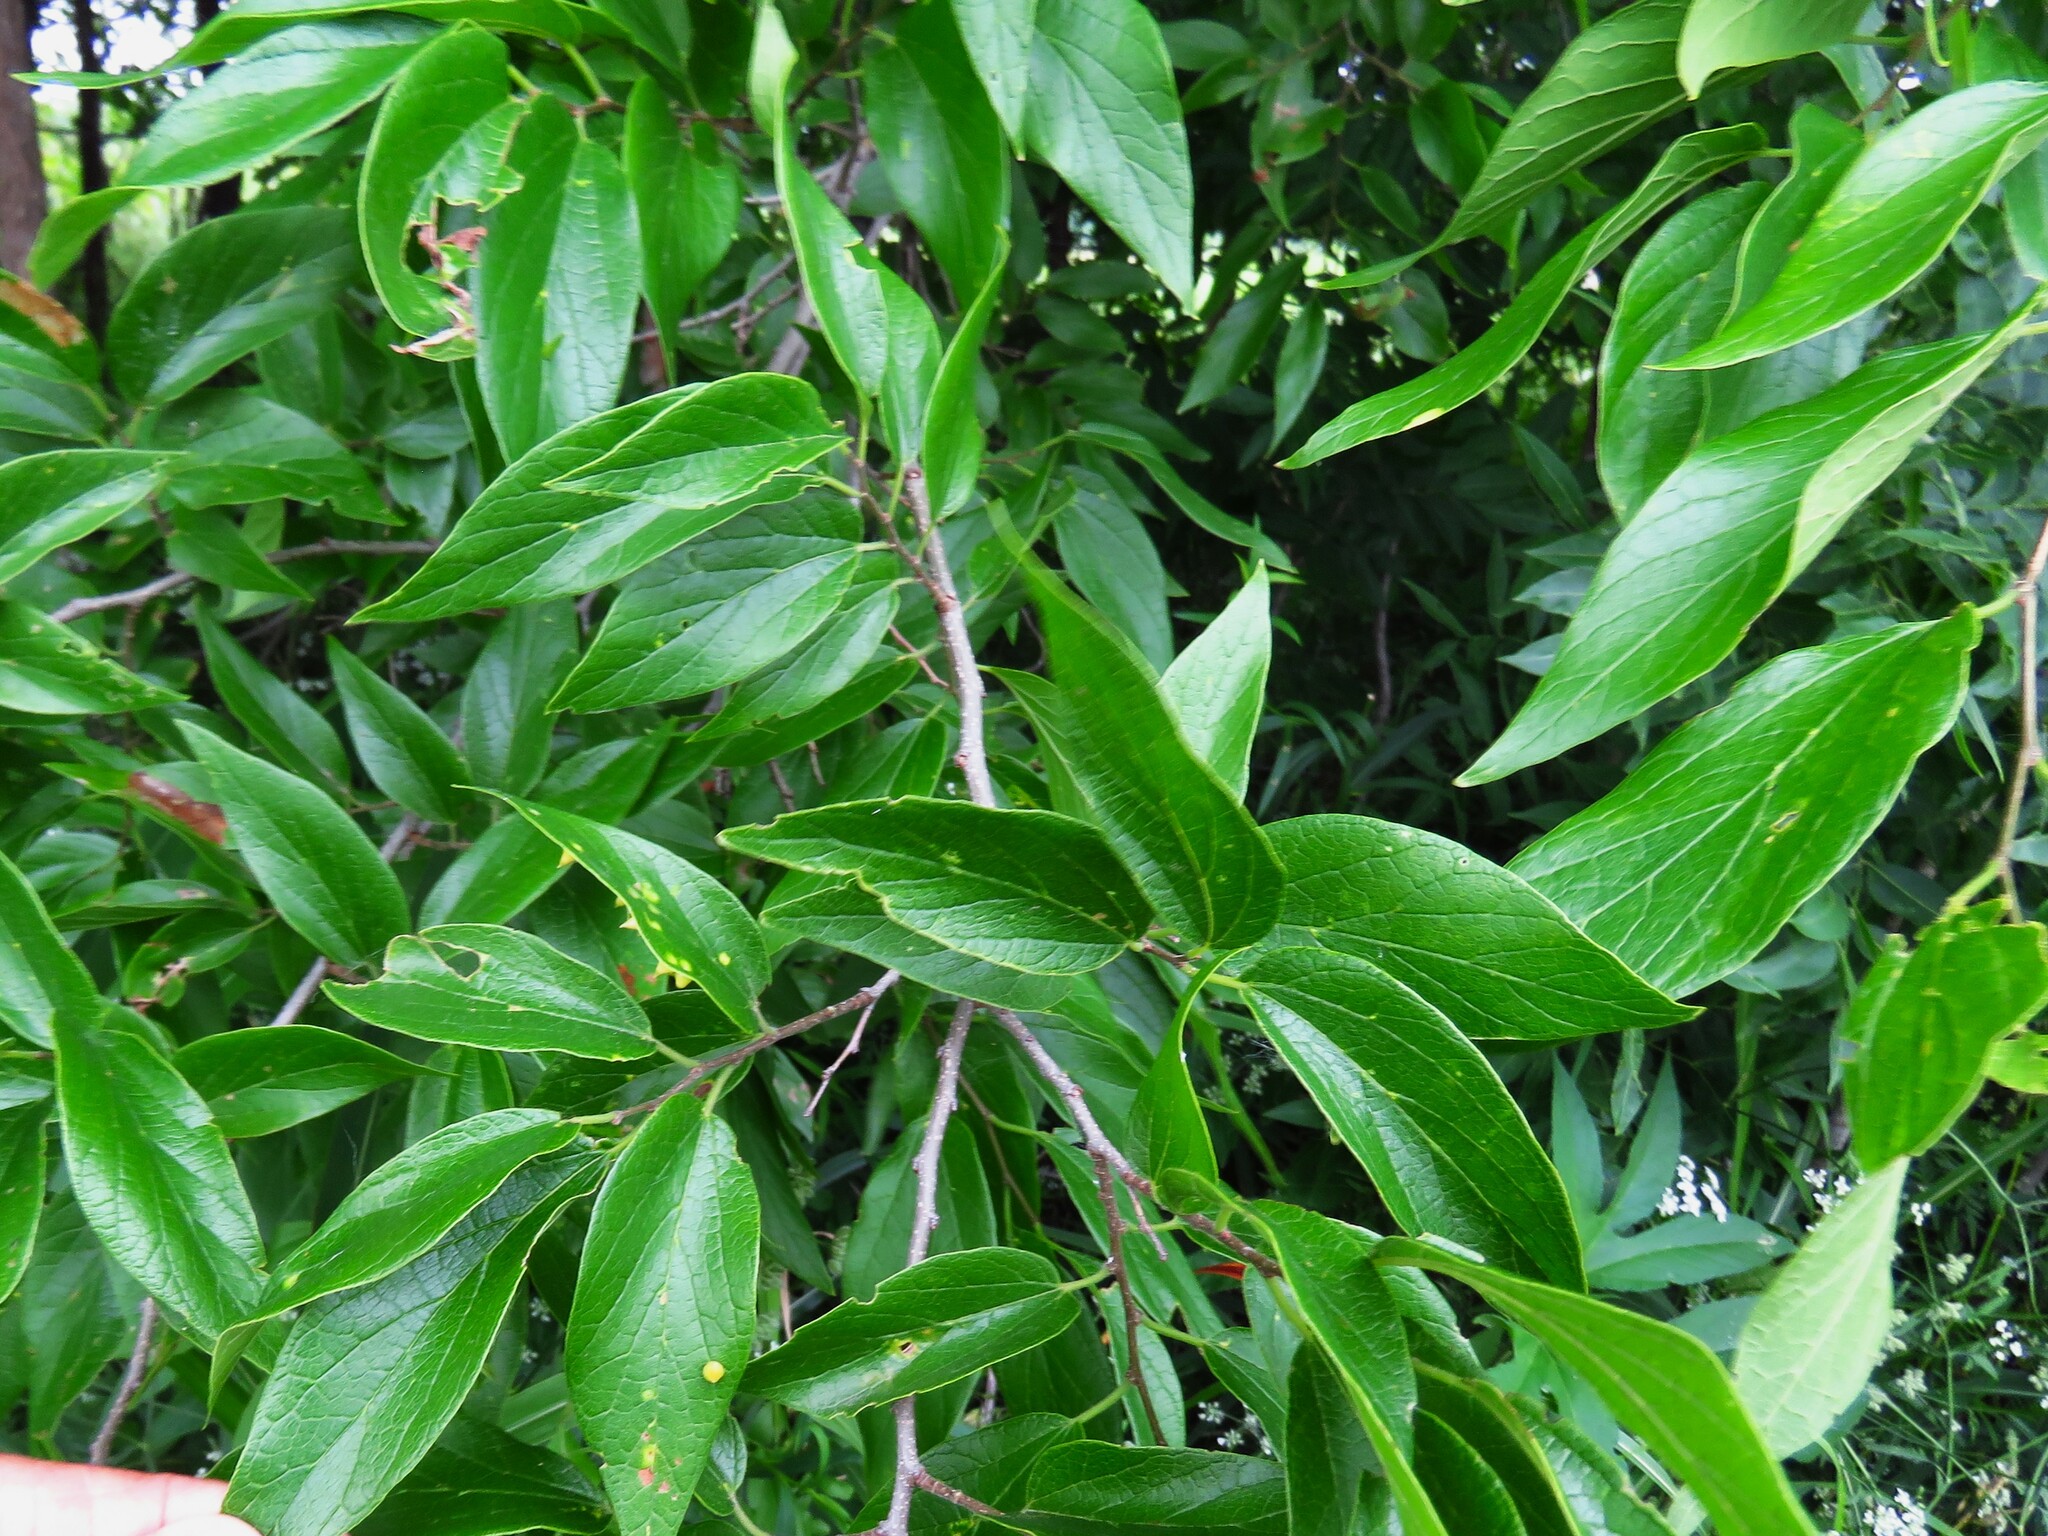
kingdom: Plantae
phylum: Tracheophyta
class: Magnoliopsida
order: Rosales
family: Cannabaceae
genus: Celtis
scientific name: Celtis laevigata
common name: Sugarberry
